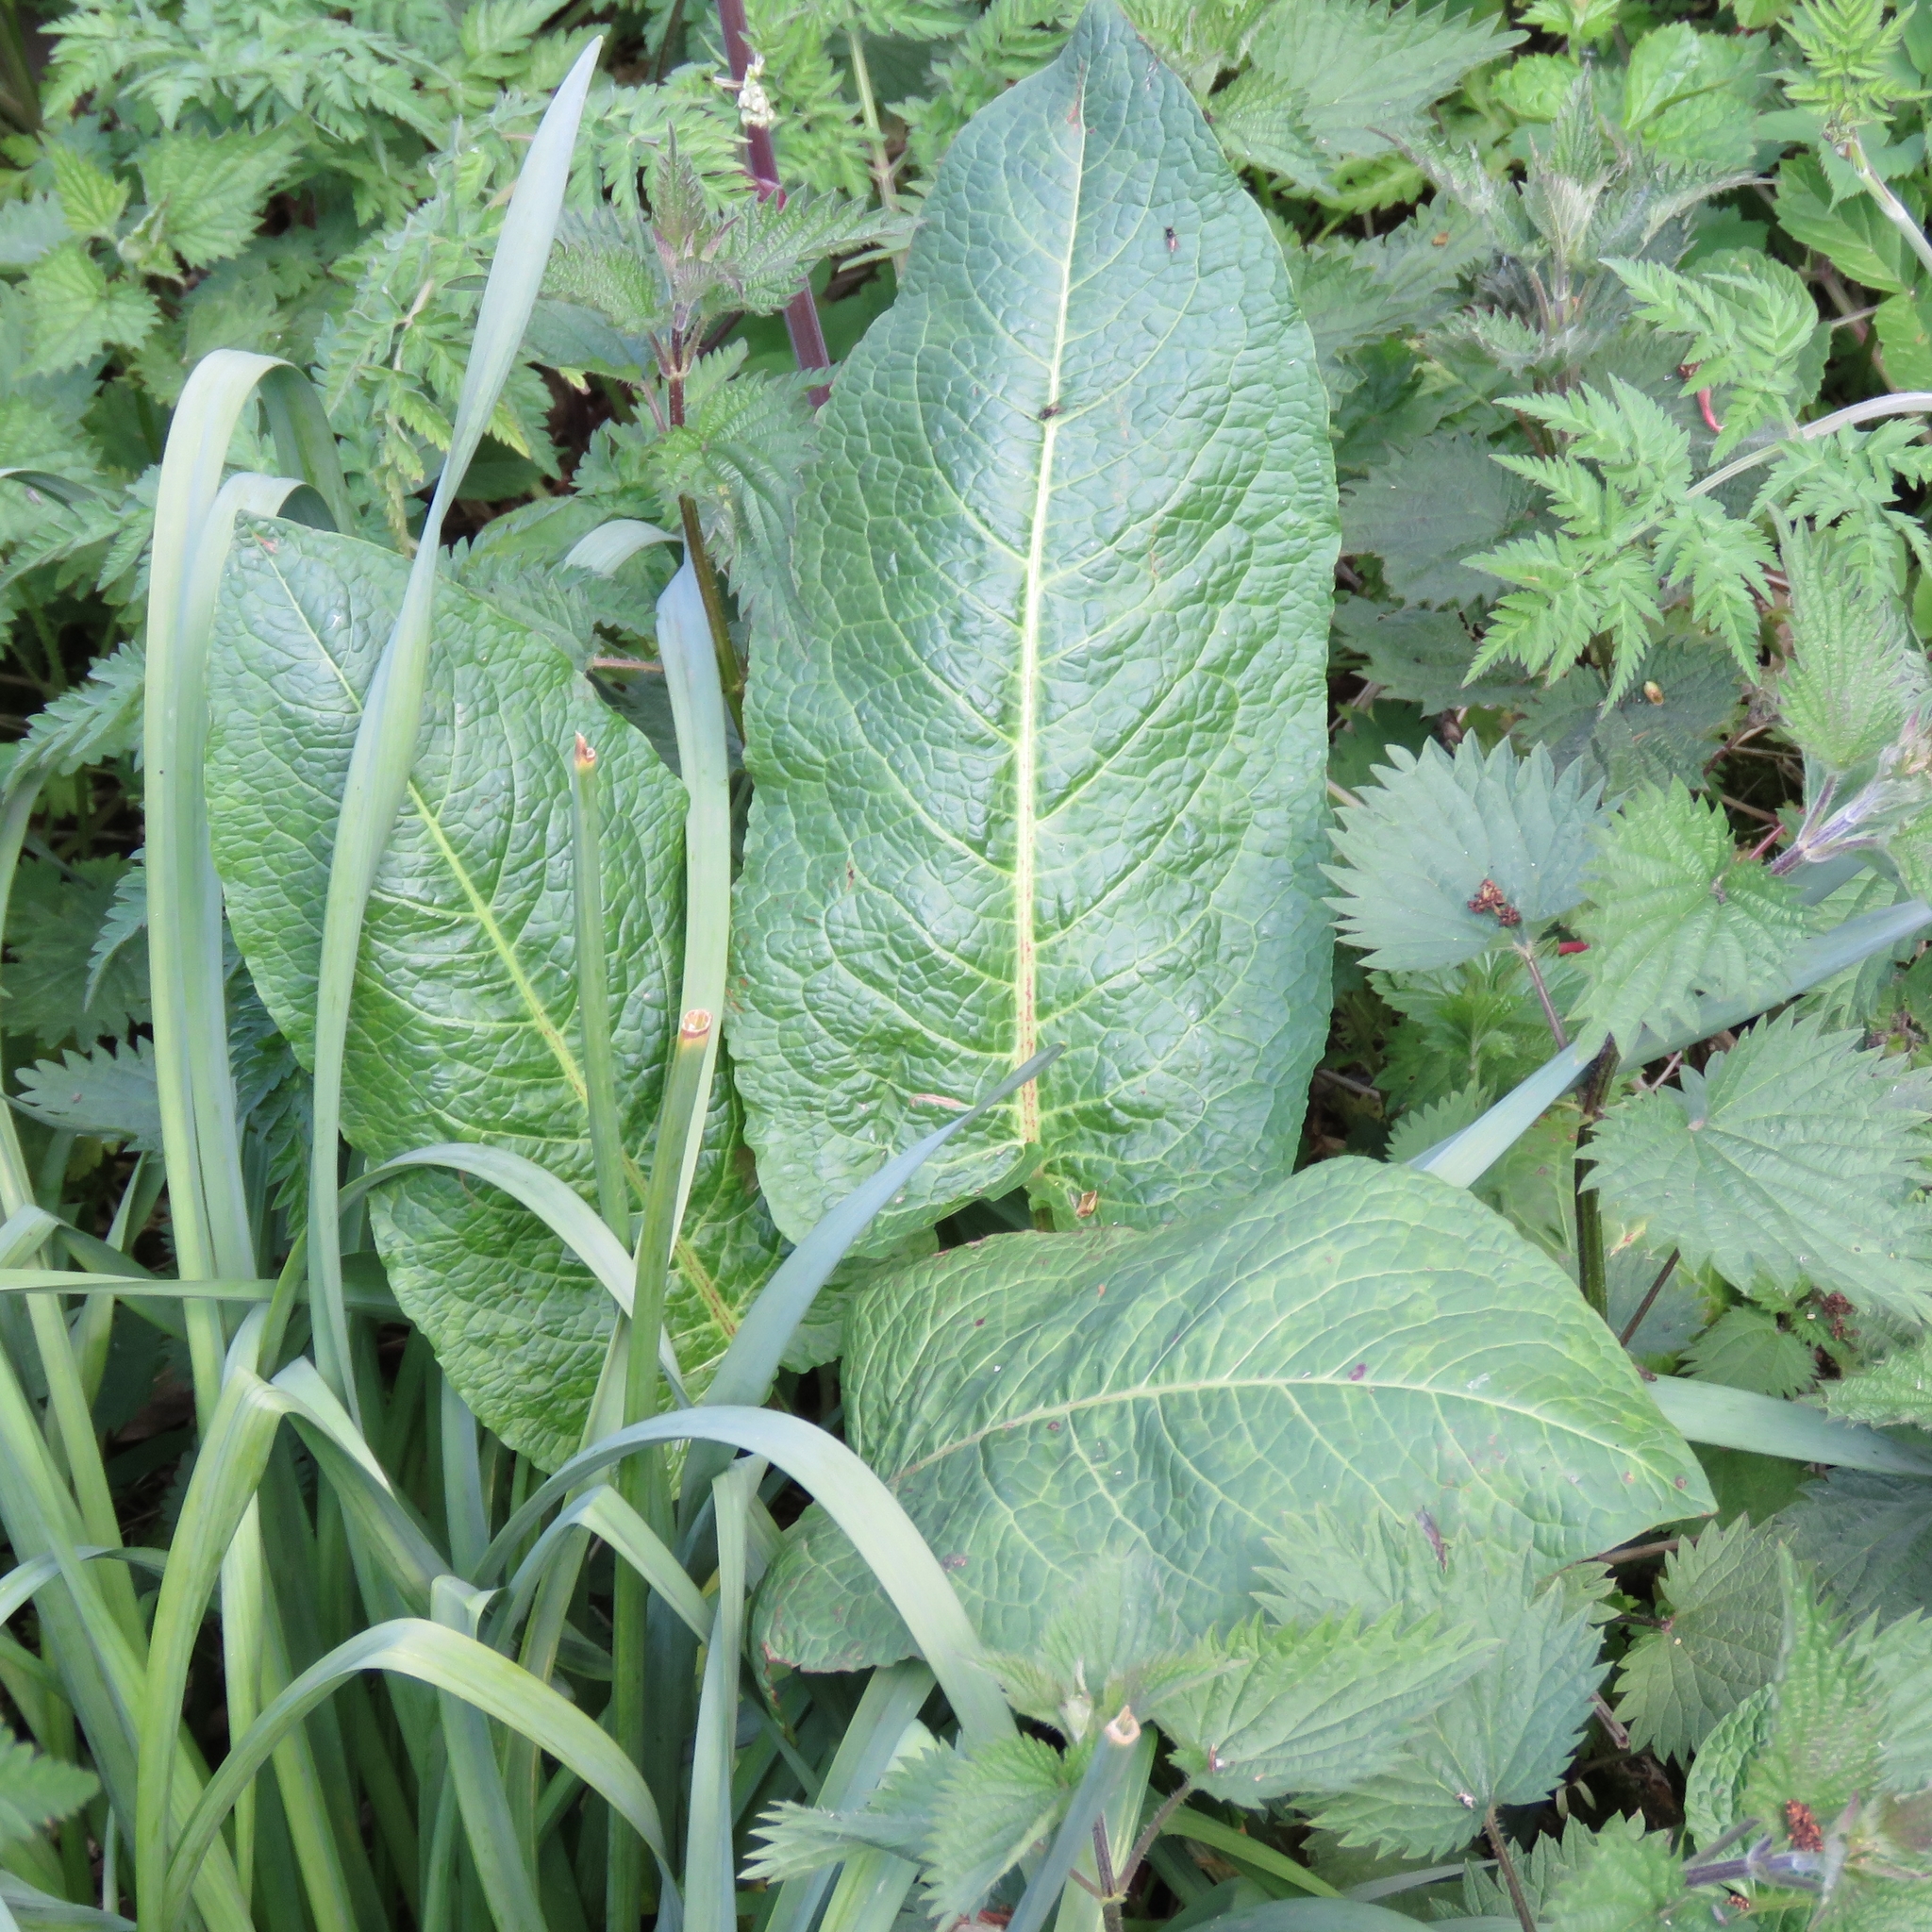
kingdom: Plantae
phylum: Tracheophyta
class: Magnoliopsida
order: Caryophyllales
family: Polygonaceae
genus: Rumex
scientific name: Rumex obtusifolius
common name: Bitter dock
